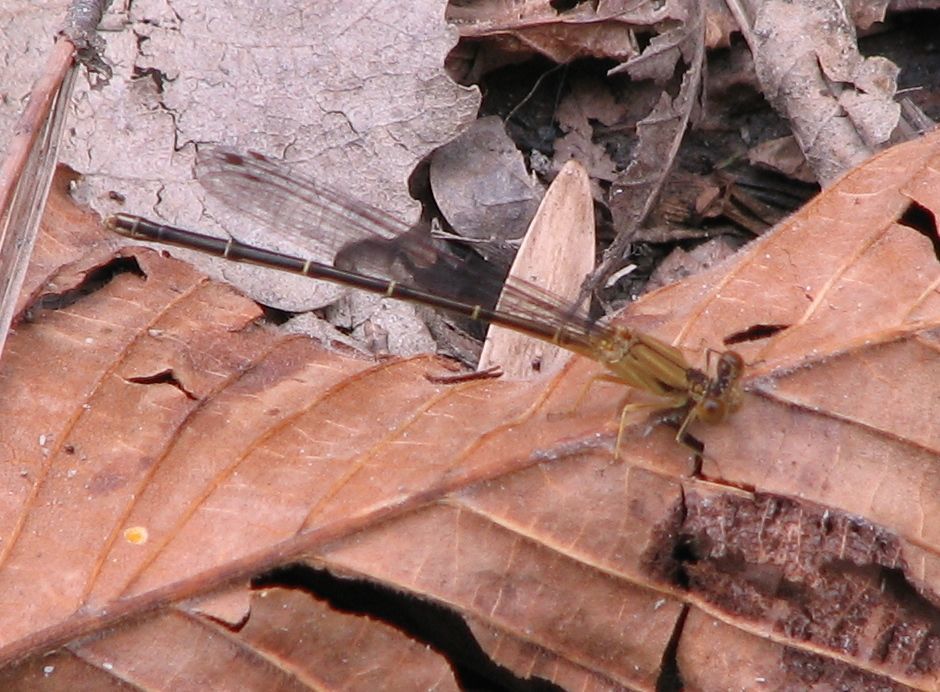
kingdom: Animalia
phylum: Arthropoda
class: Insecta
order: Odonata
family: Coenagrionidae
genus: Argia
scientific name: Argia apicalis
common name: Blue-fronted dancer
